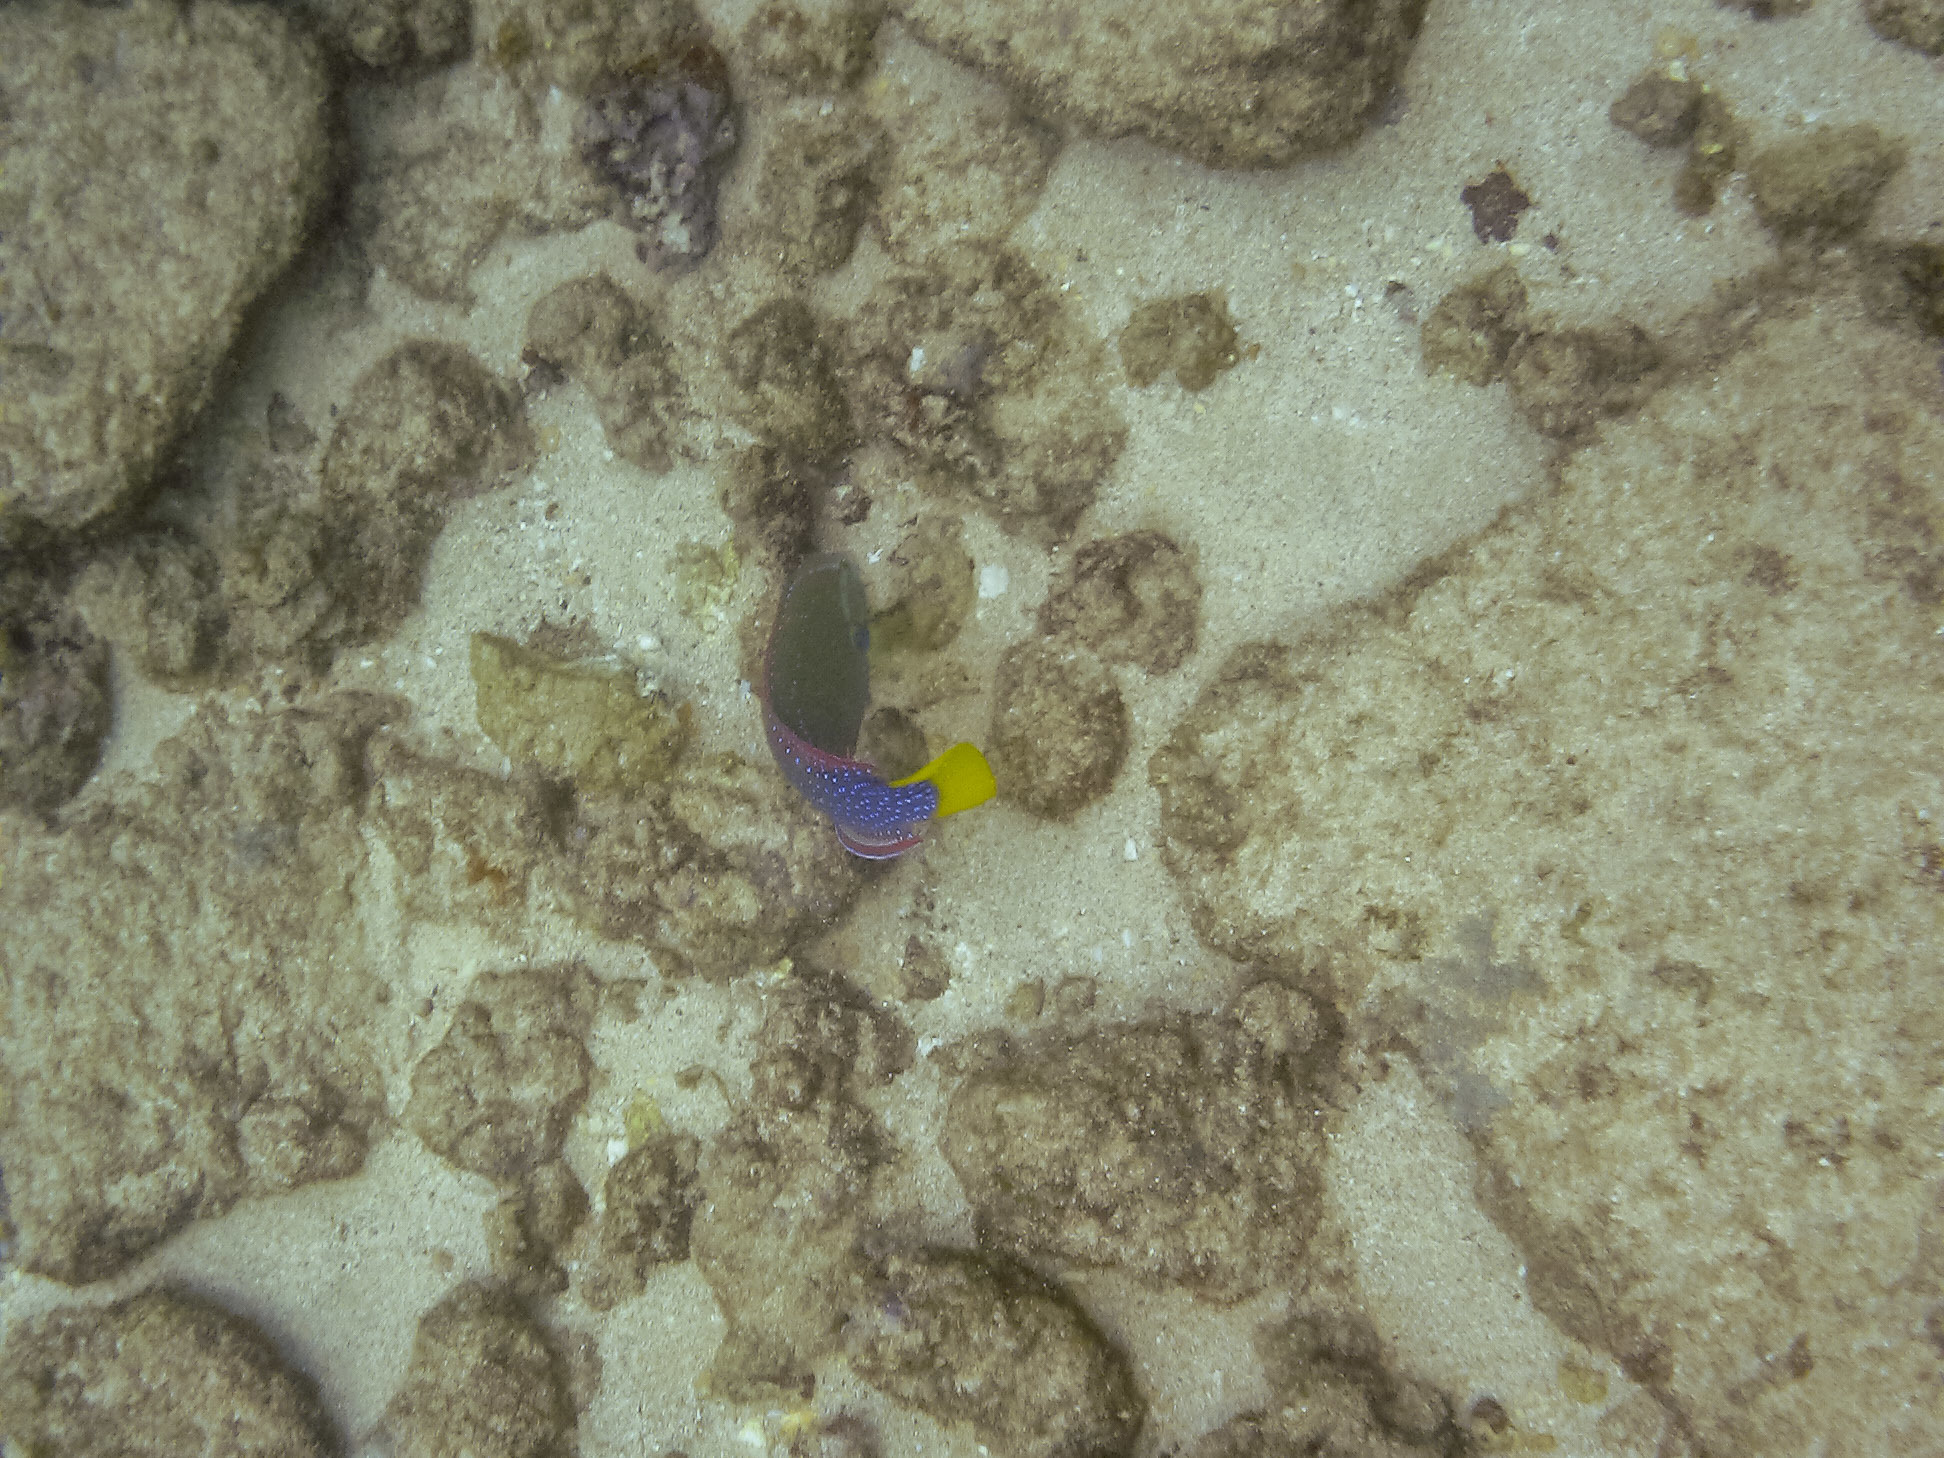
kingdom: Animalia
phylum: Chordata
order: Perciformes
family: Labridae
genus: Coris
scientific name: Coris gaimard
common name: Yellowtail coris
